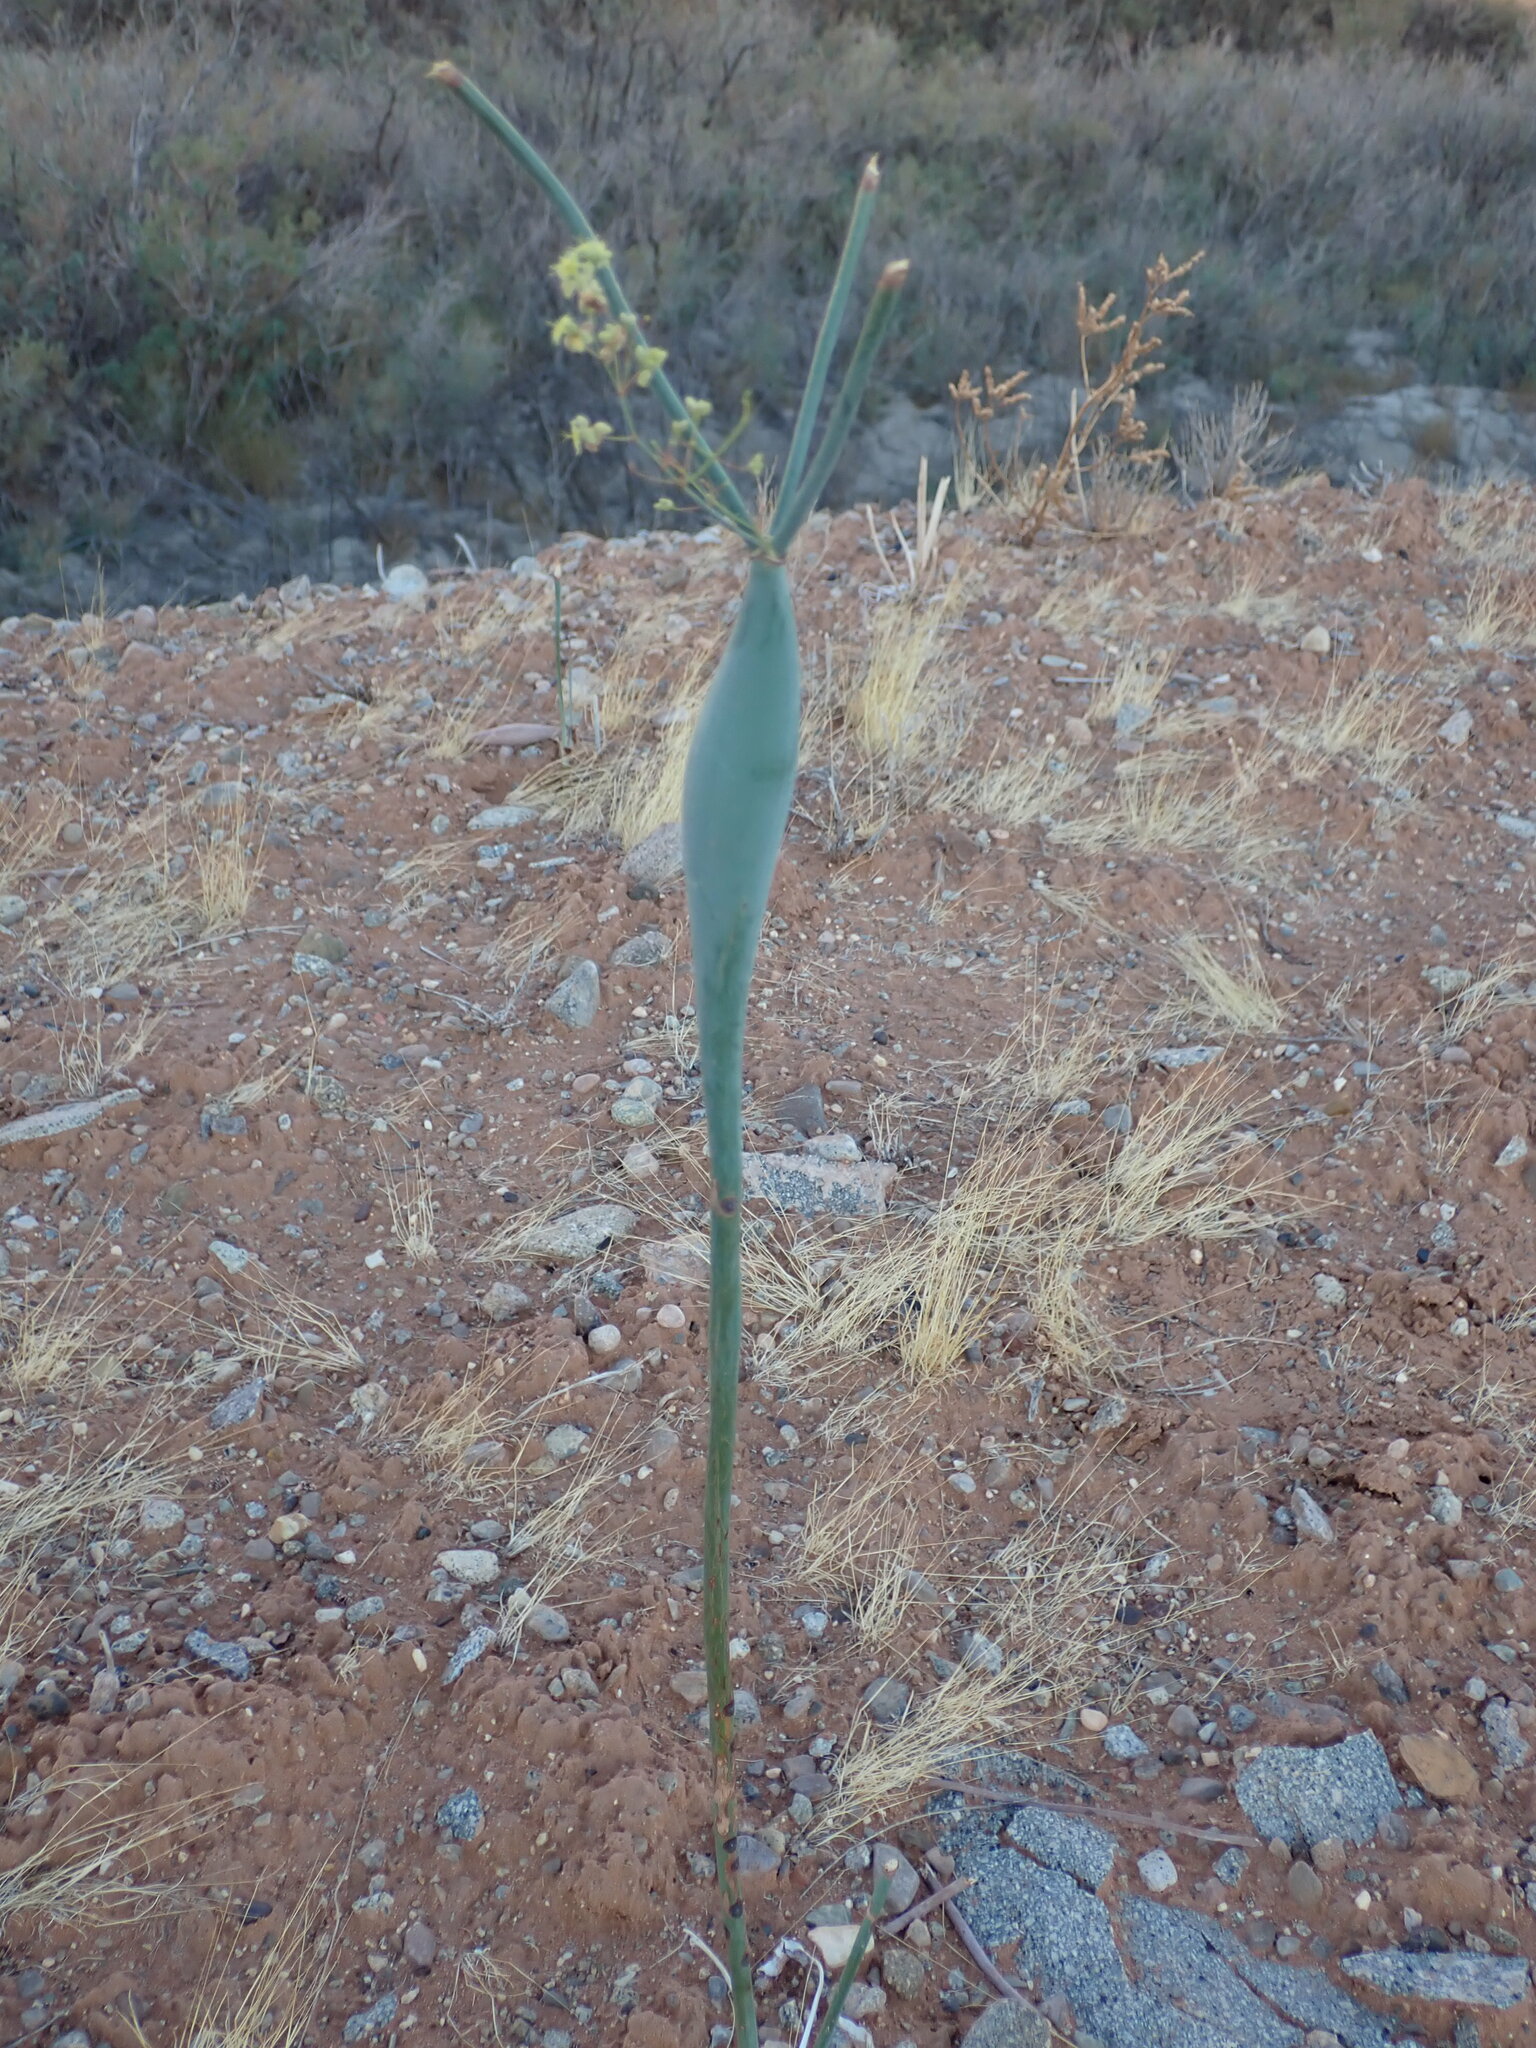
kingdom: Plantae
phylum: Tracheophyta
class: Magnoliopsida
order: Caryophyllales
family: Polygonaceae
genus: Eriogonum
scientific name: Eriogonum fusiforme
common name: Grand valley desert trumpet
